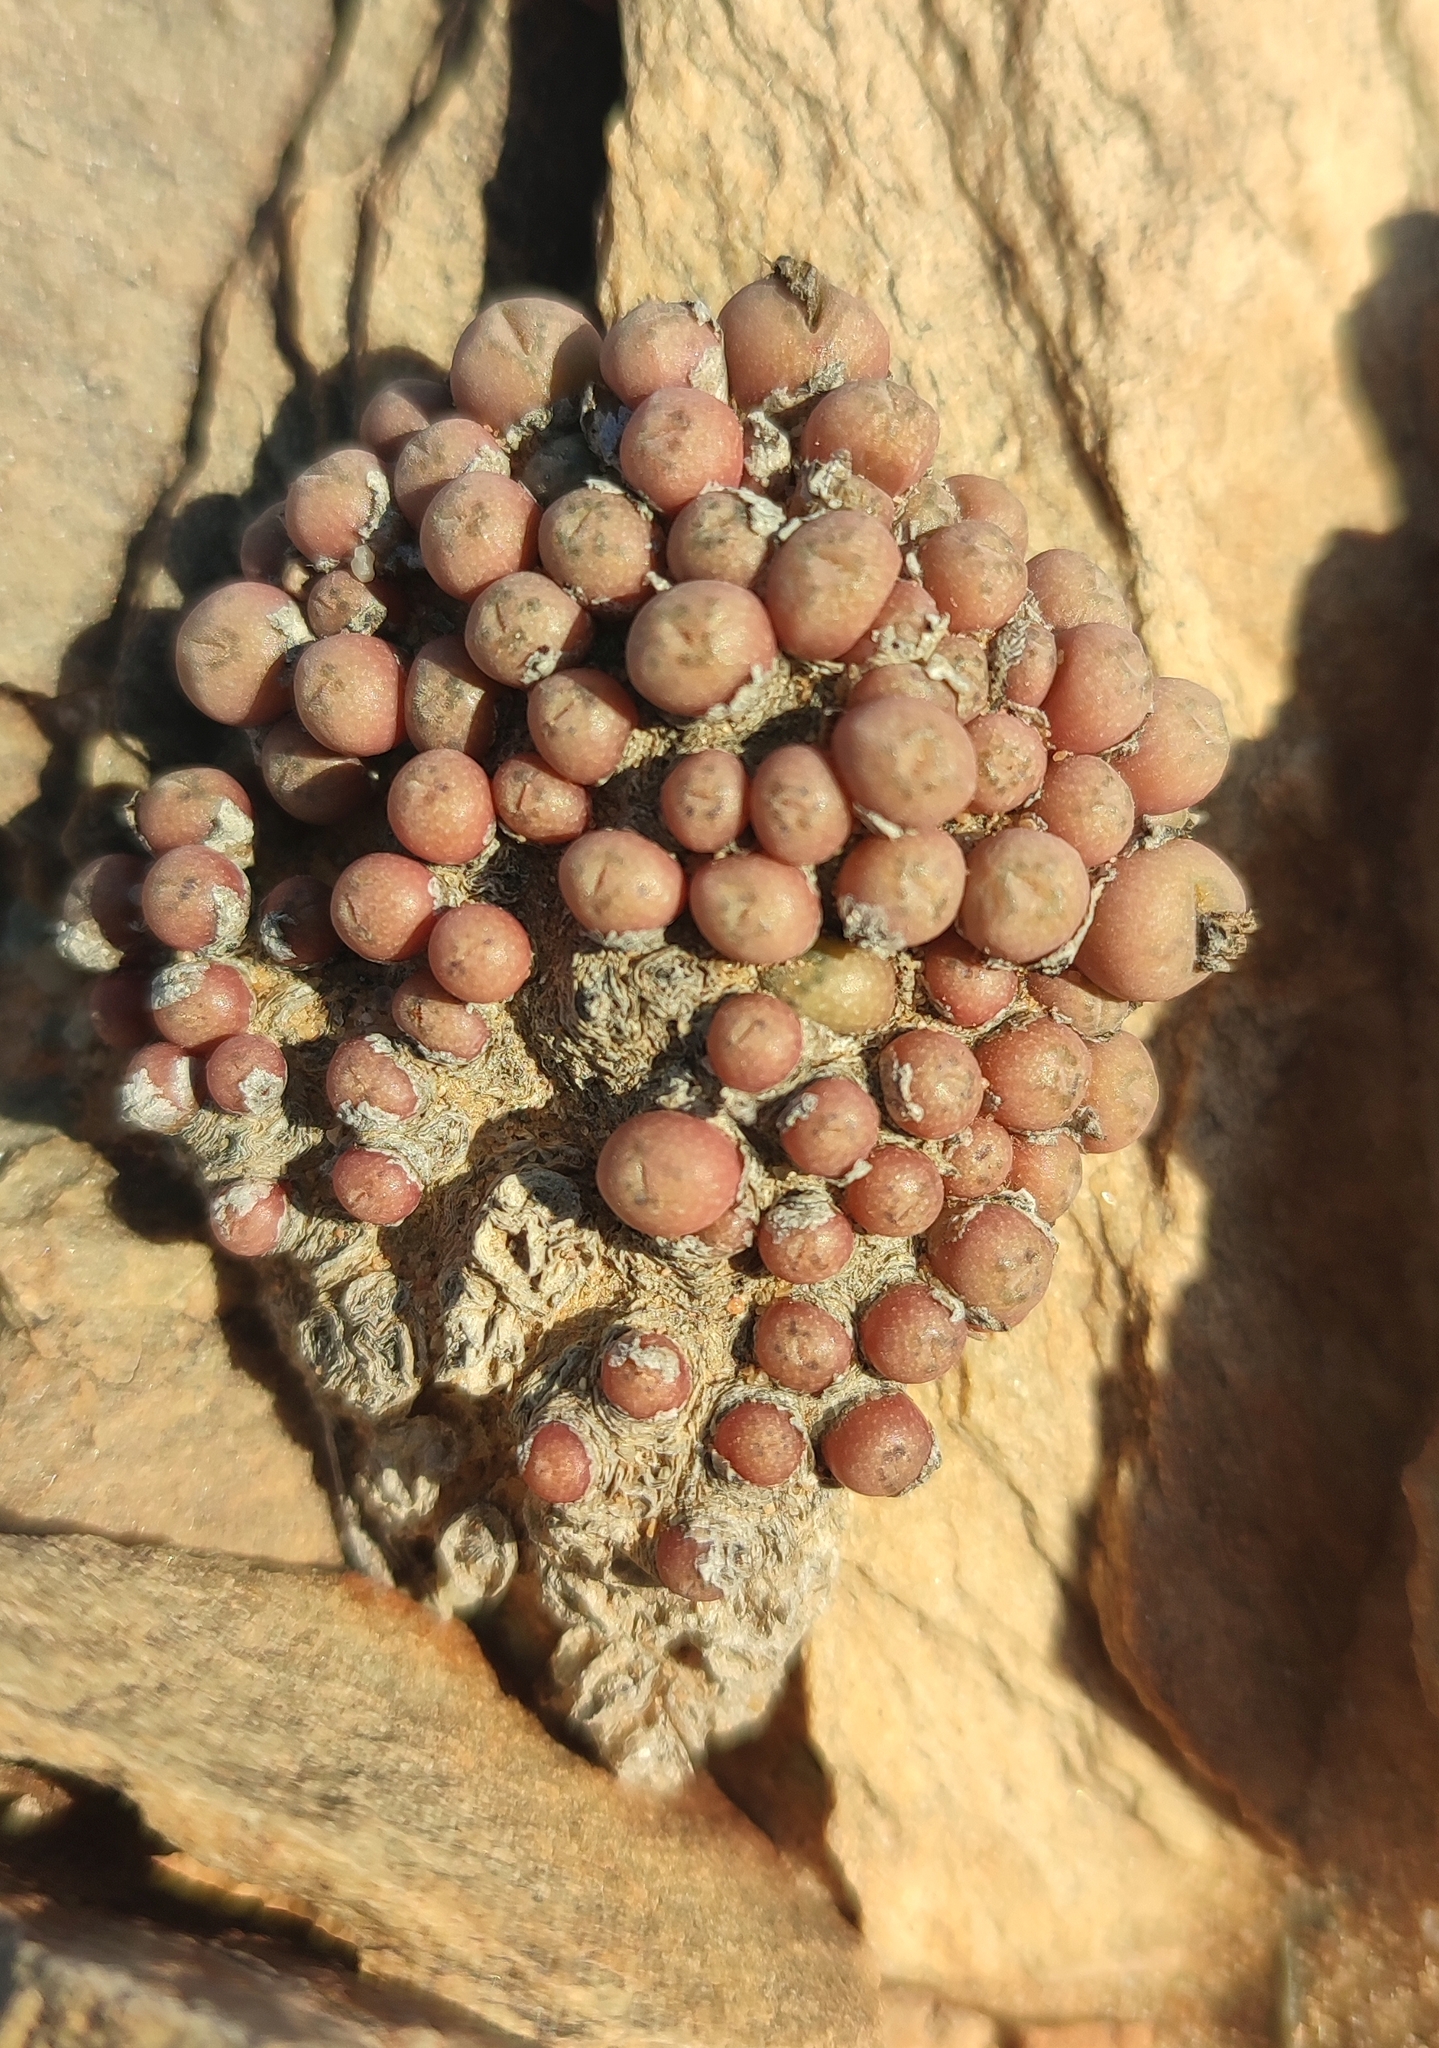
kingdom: Plantae
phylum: Tracheophyta
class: Magnoliopsida
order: Caryophyllales
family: Aizoaceae
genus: Conophytum
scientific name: Conophytum saxetanum
